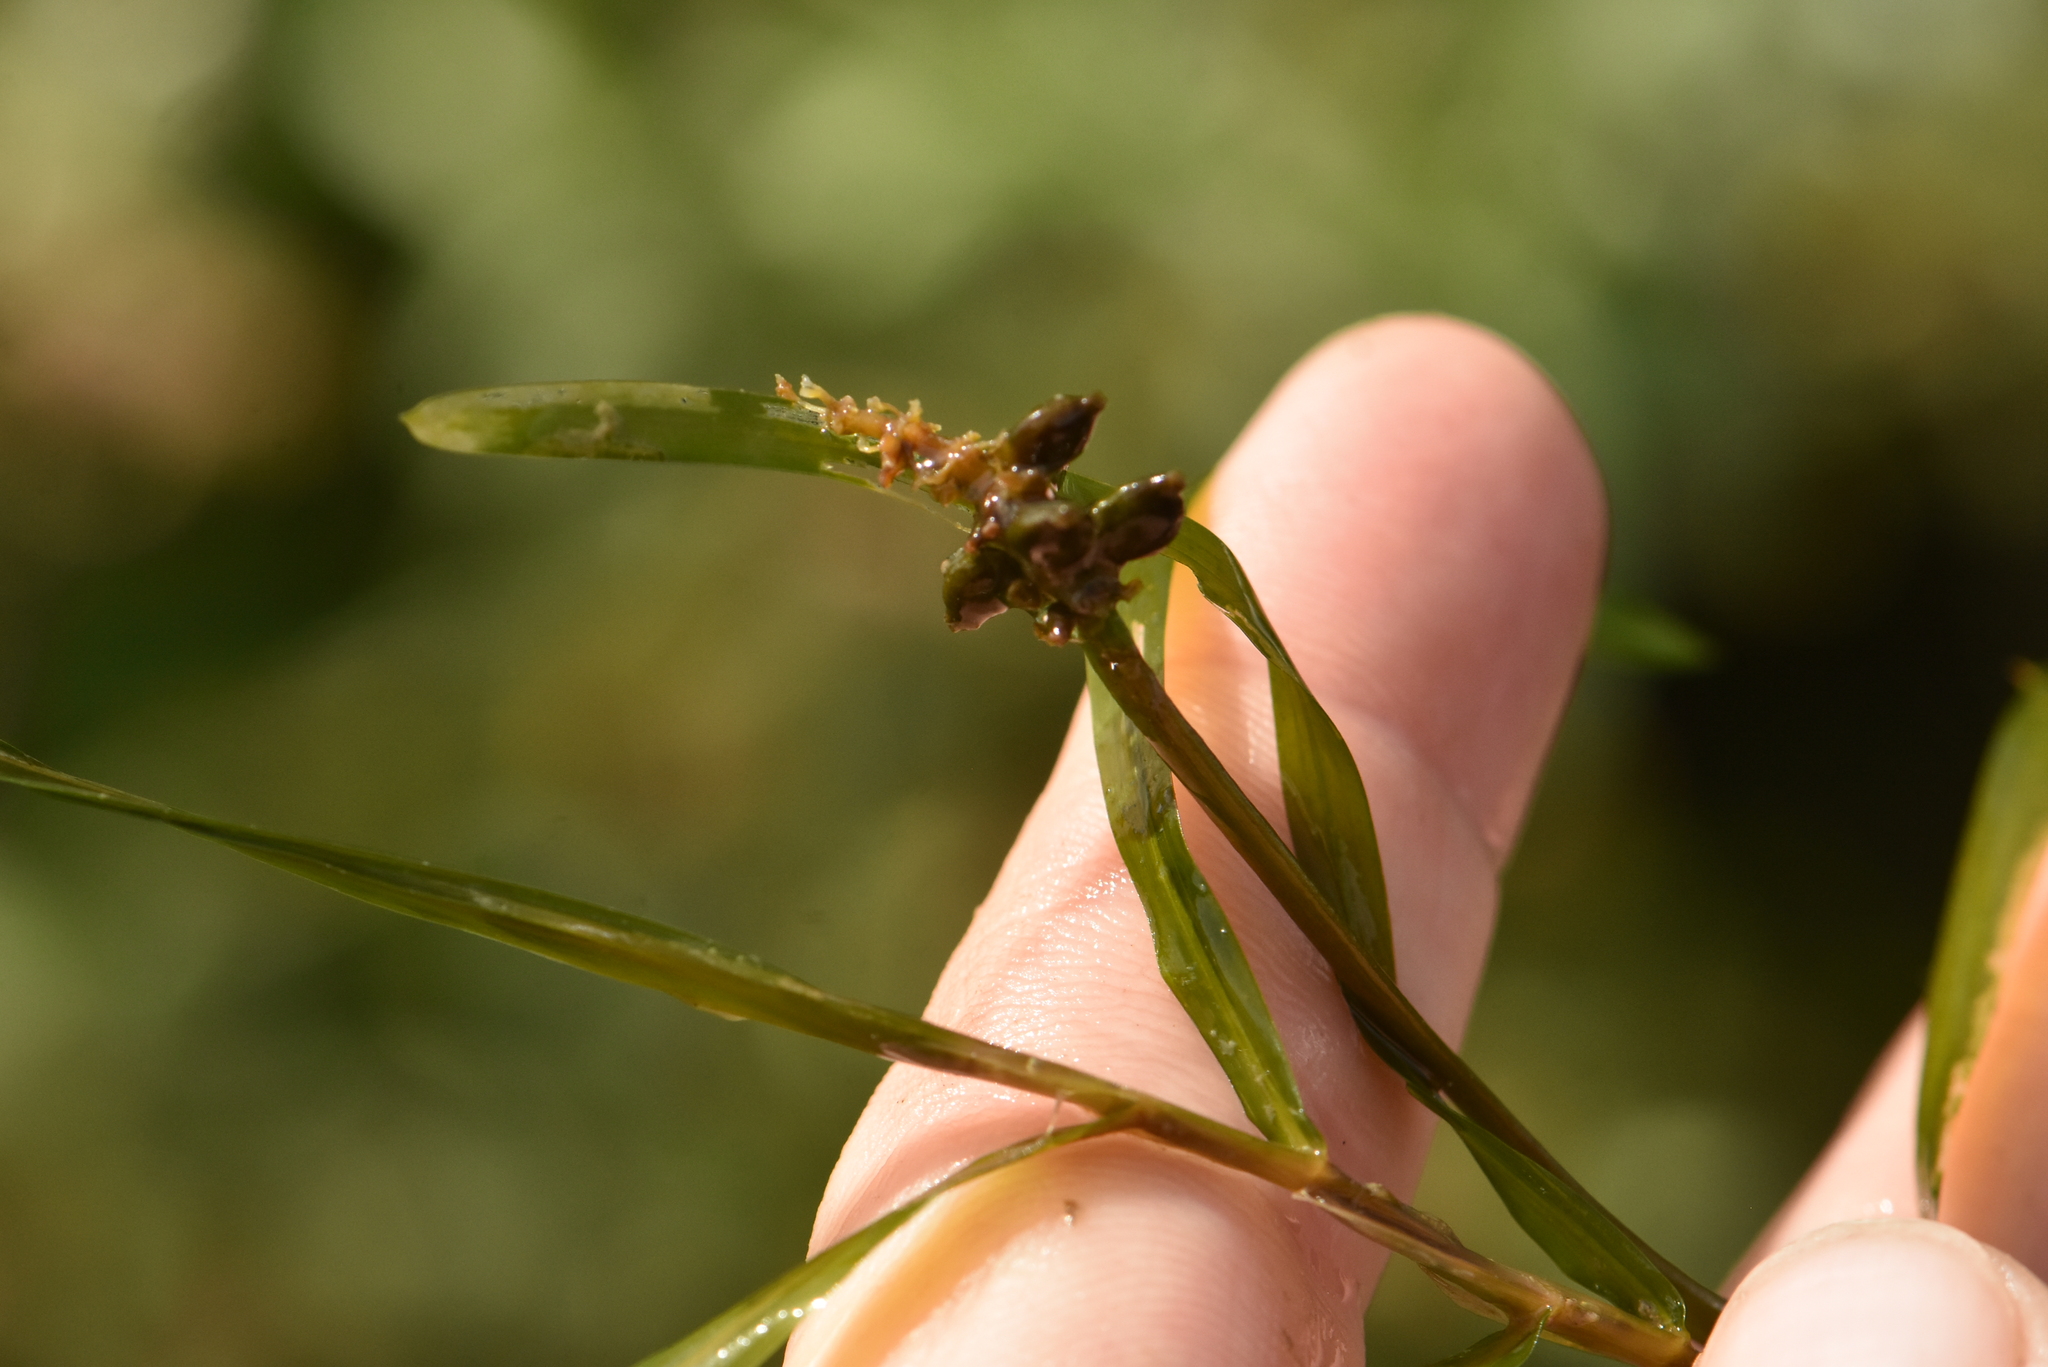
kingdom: Plantae
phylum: Tracheophyta
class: Liliopsida
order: Alismatales
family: Potamogetonaceae
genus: Potamogeton
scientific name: Potamogeton acutifolius
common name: Sharp-leaved pondweed
